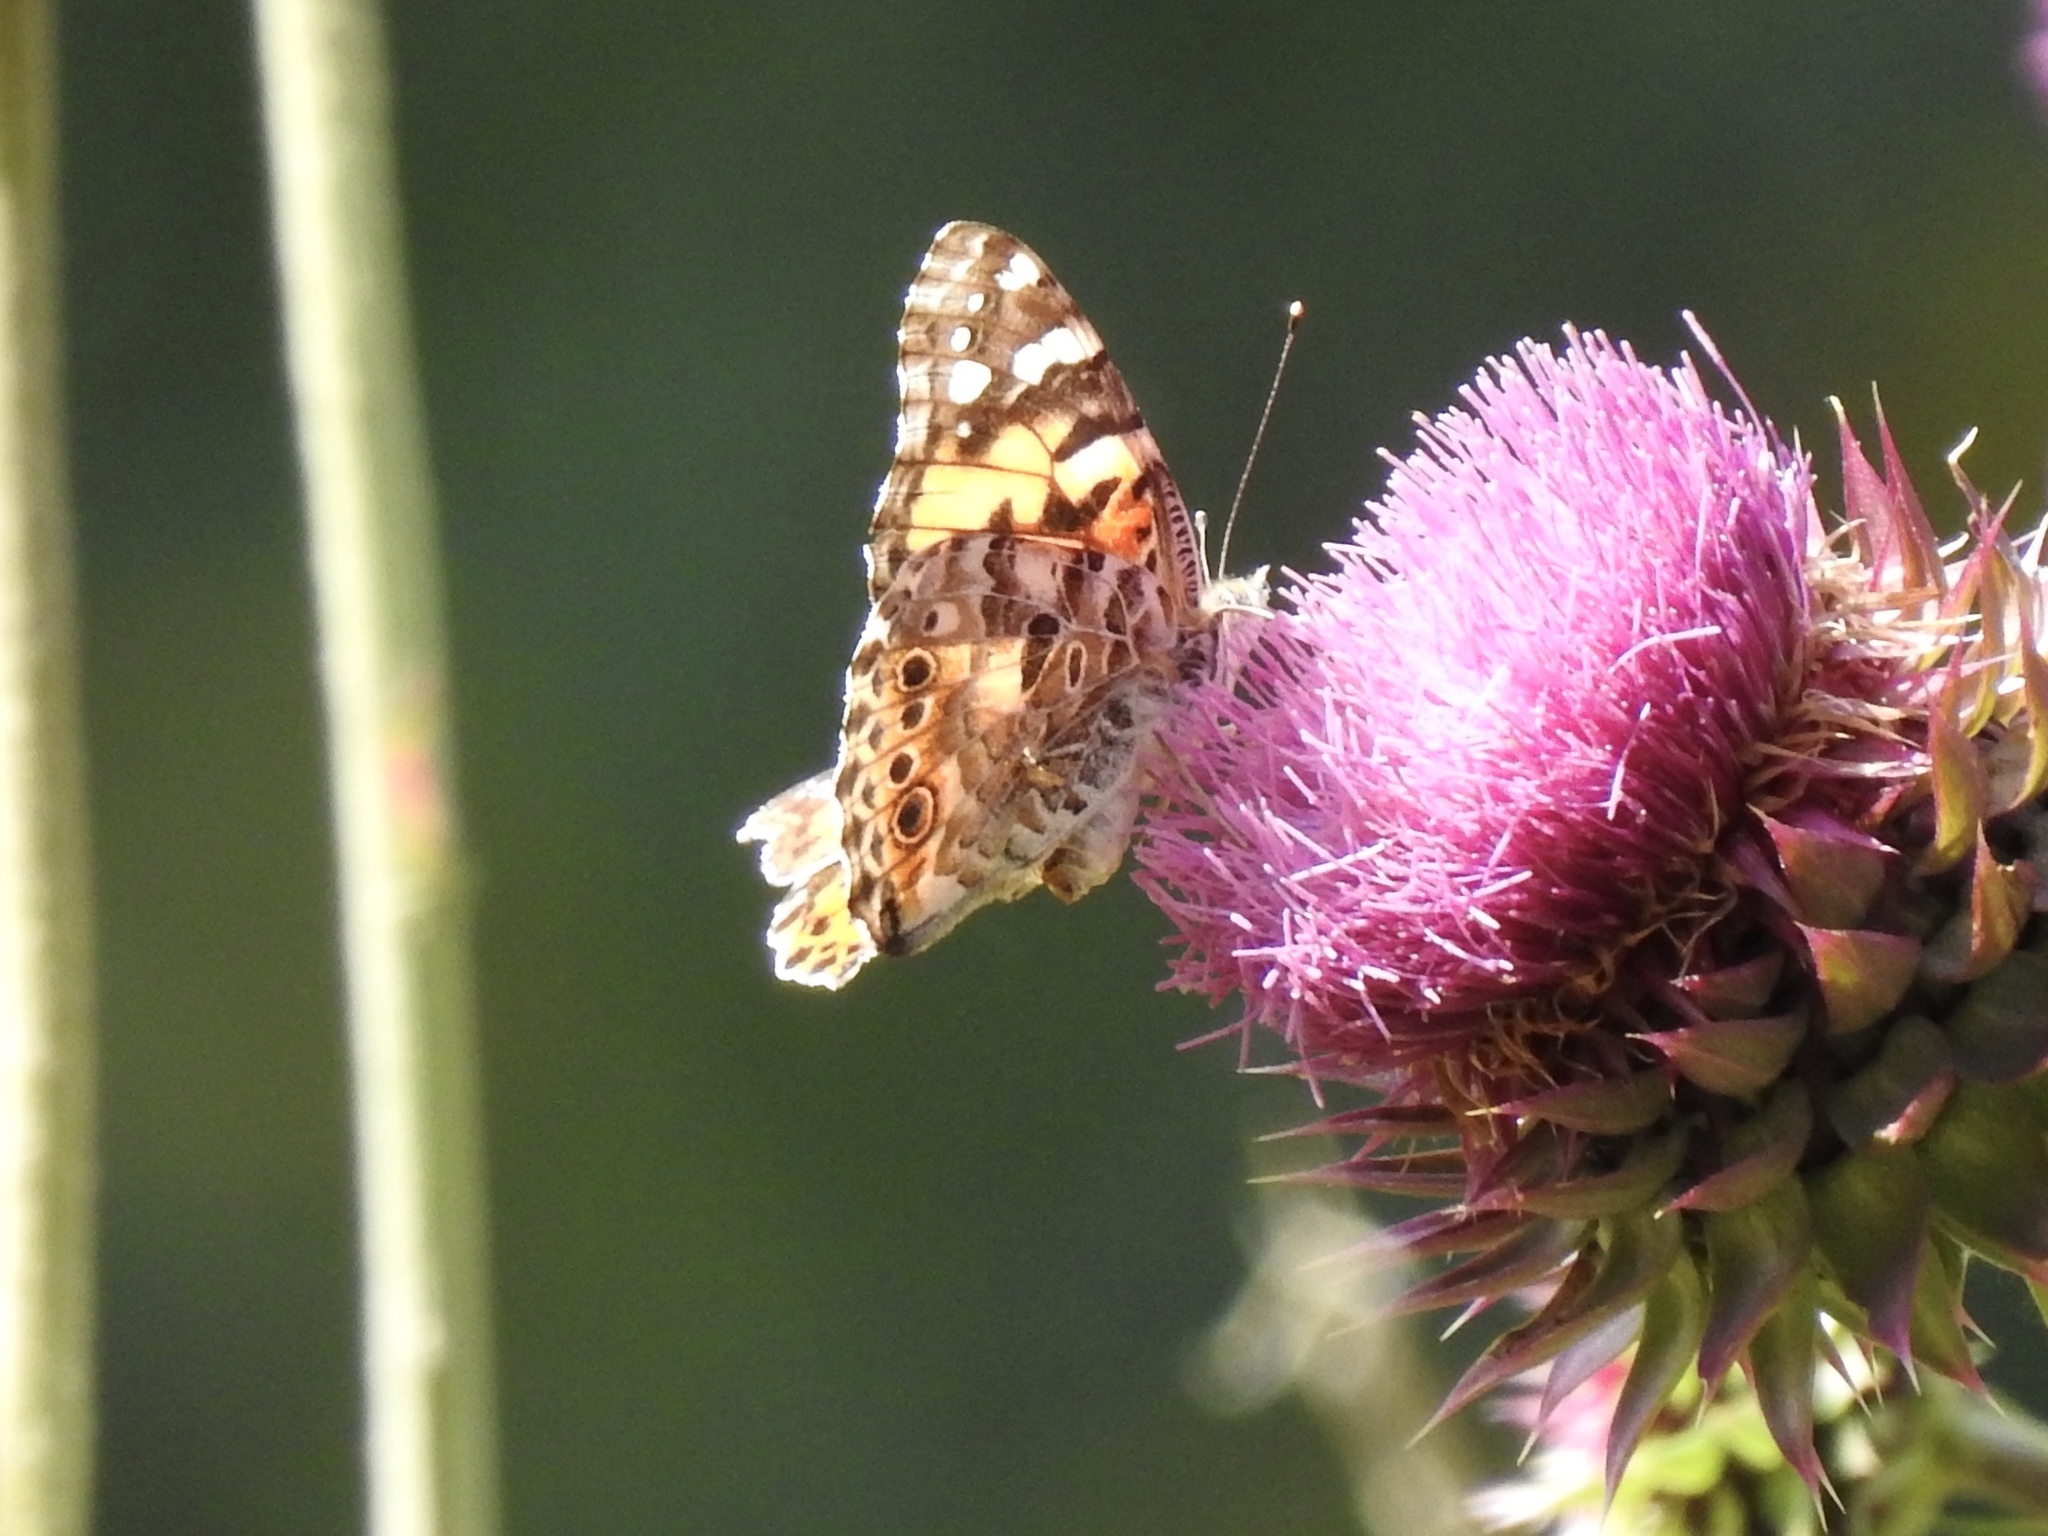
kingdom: Animalia
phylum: Arthropoda
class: Insecta
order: Lepidoptera
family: Nymphalidae
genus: Vanessa
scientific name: Vanessa cardui
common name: Painted lady
